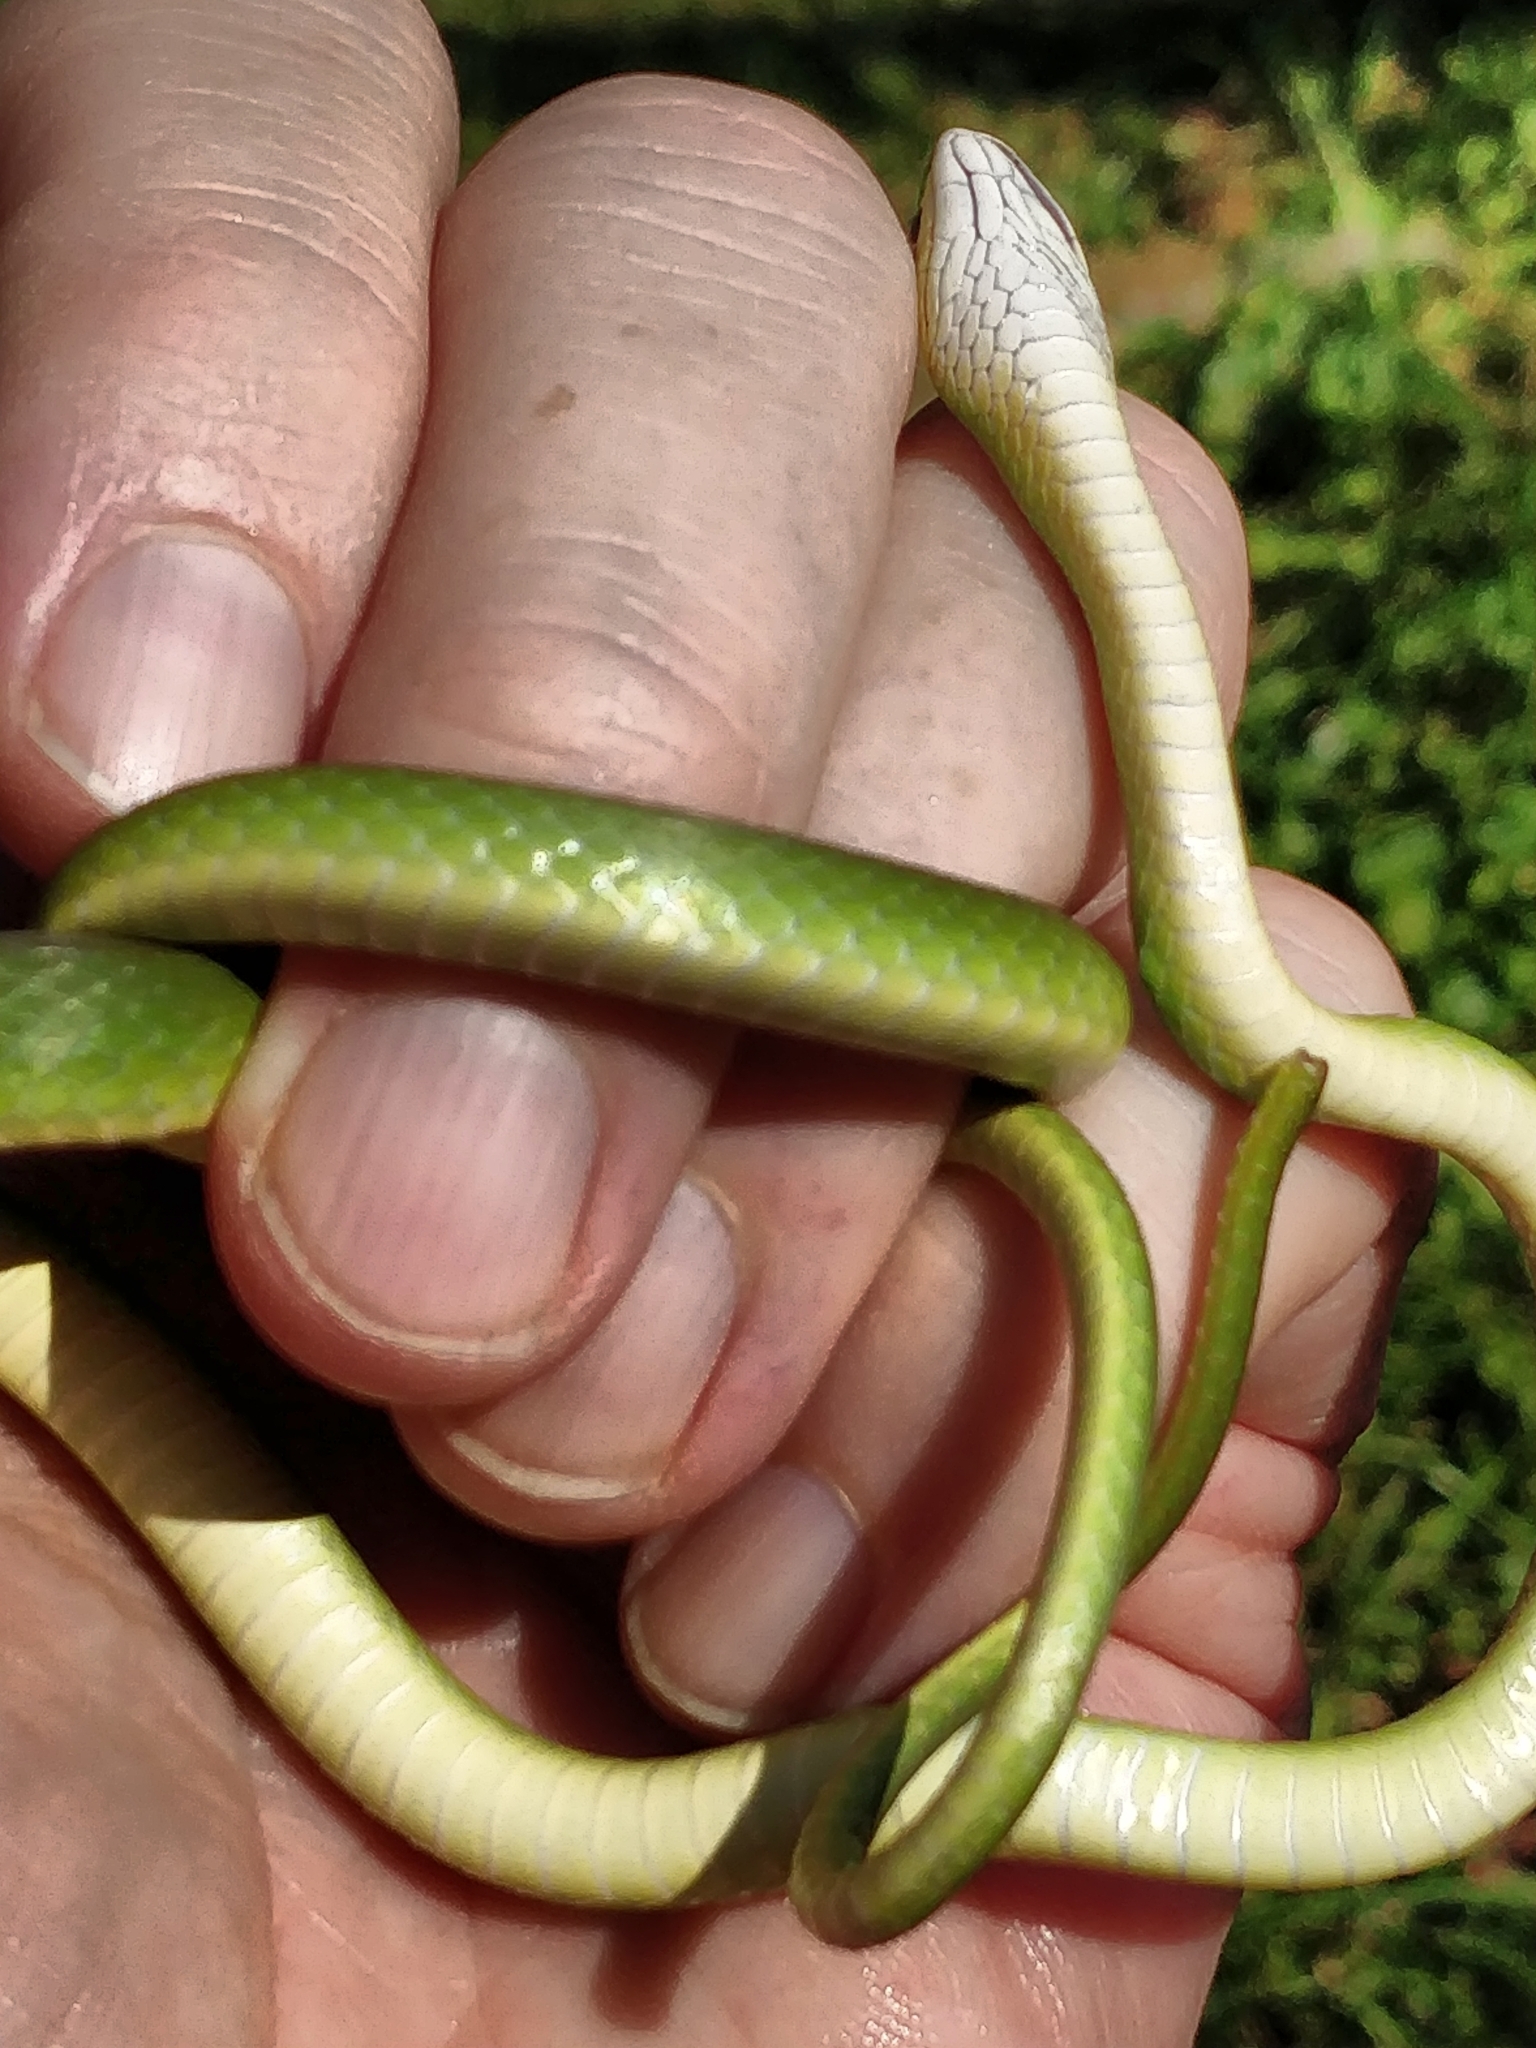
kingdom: Animalia
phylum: Chordata
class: Squamata
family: Colubridae
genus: Opheodrys
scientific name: Opheodrys aestivus
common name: Rough greensnake
